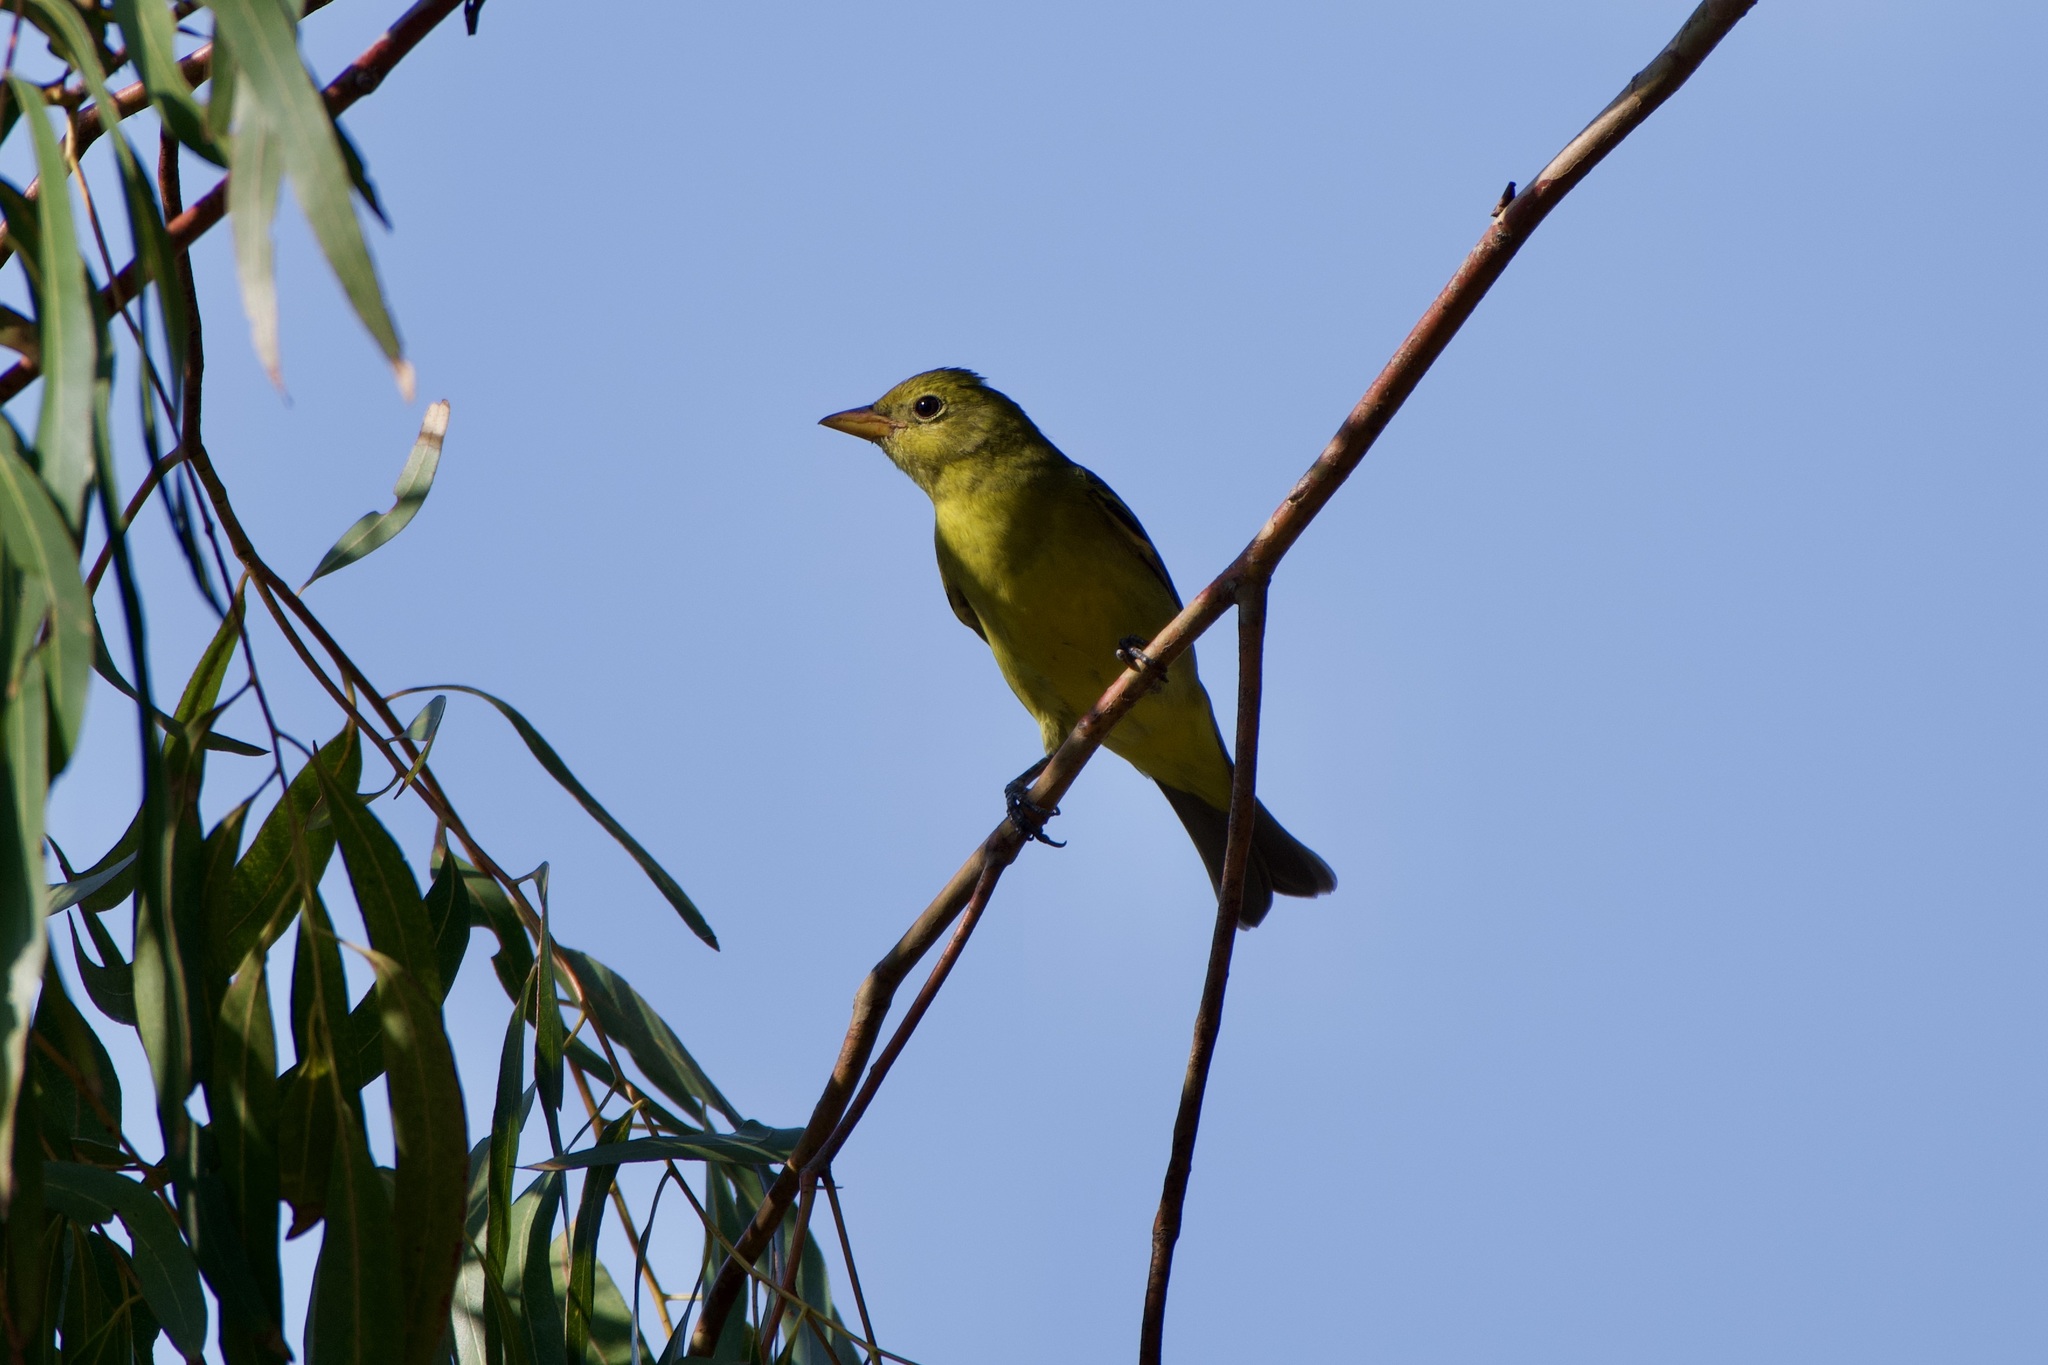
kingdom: Animalia
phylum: Chordata
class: Aves
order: Passeriformes
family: Cardinalidae
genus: Piranga
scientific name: Piranga ludoviciana
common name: Western tanager
